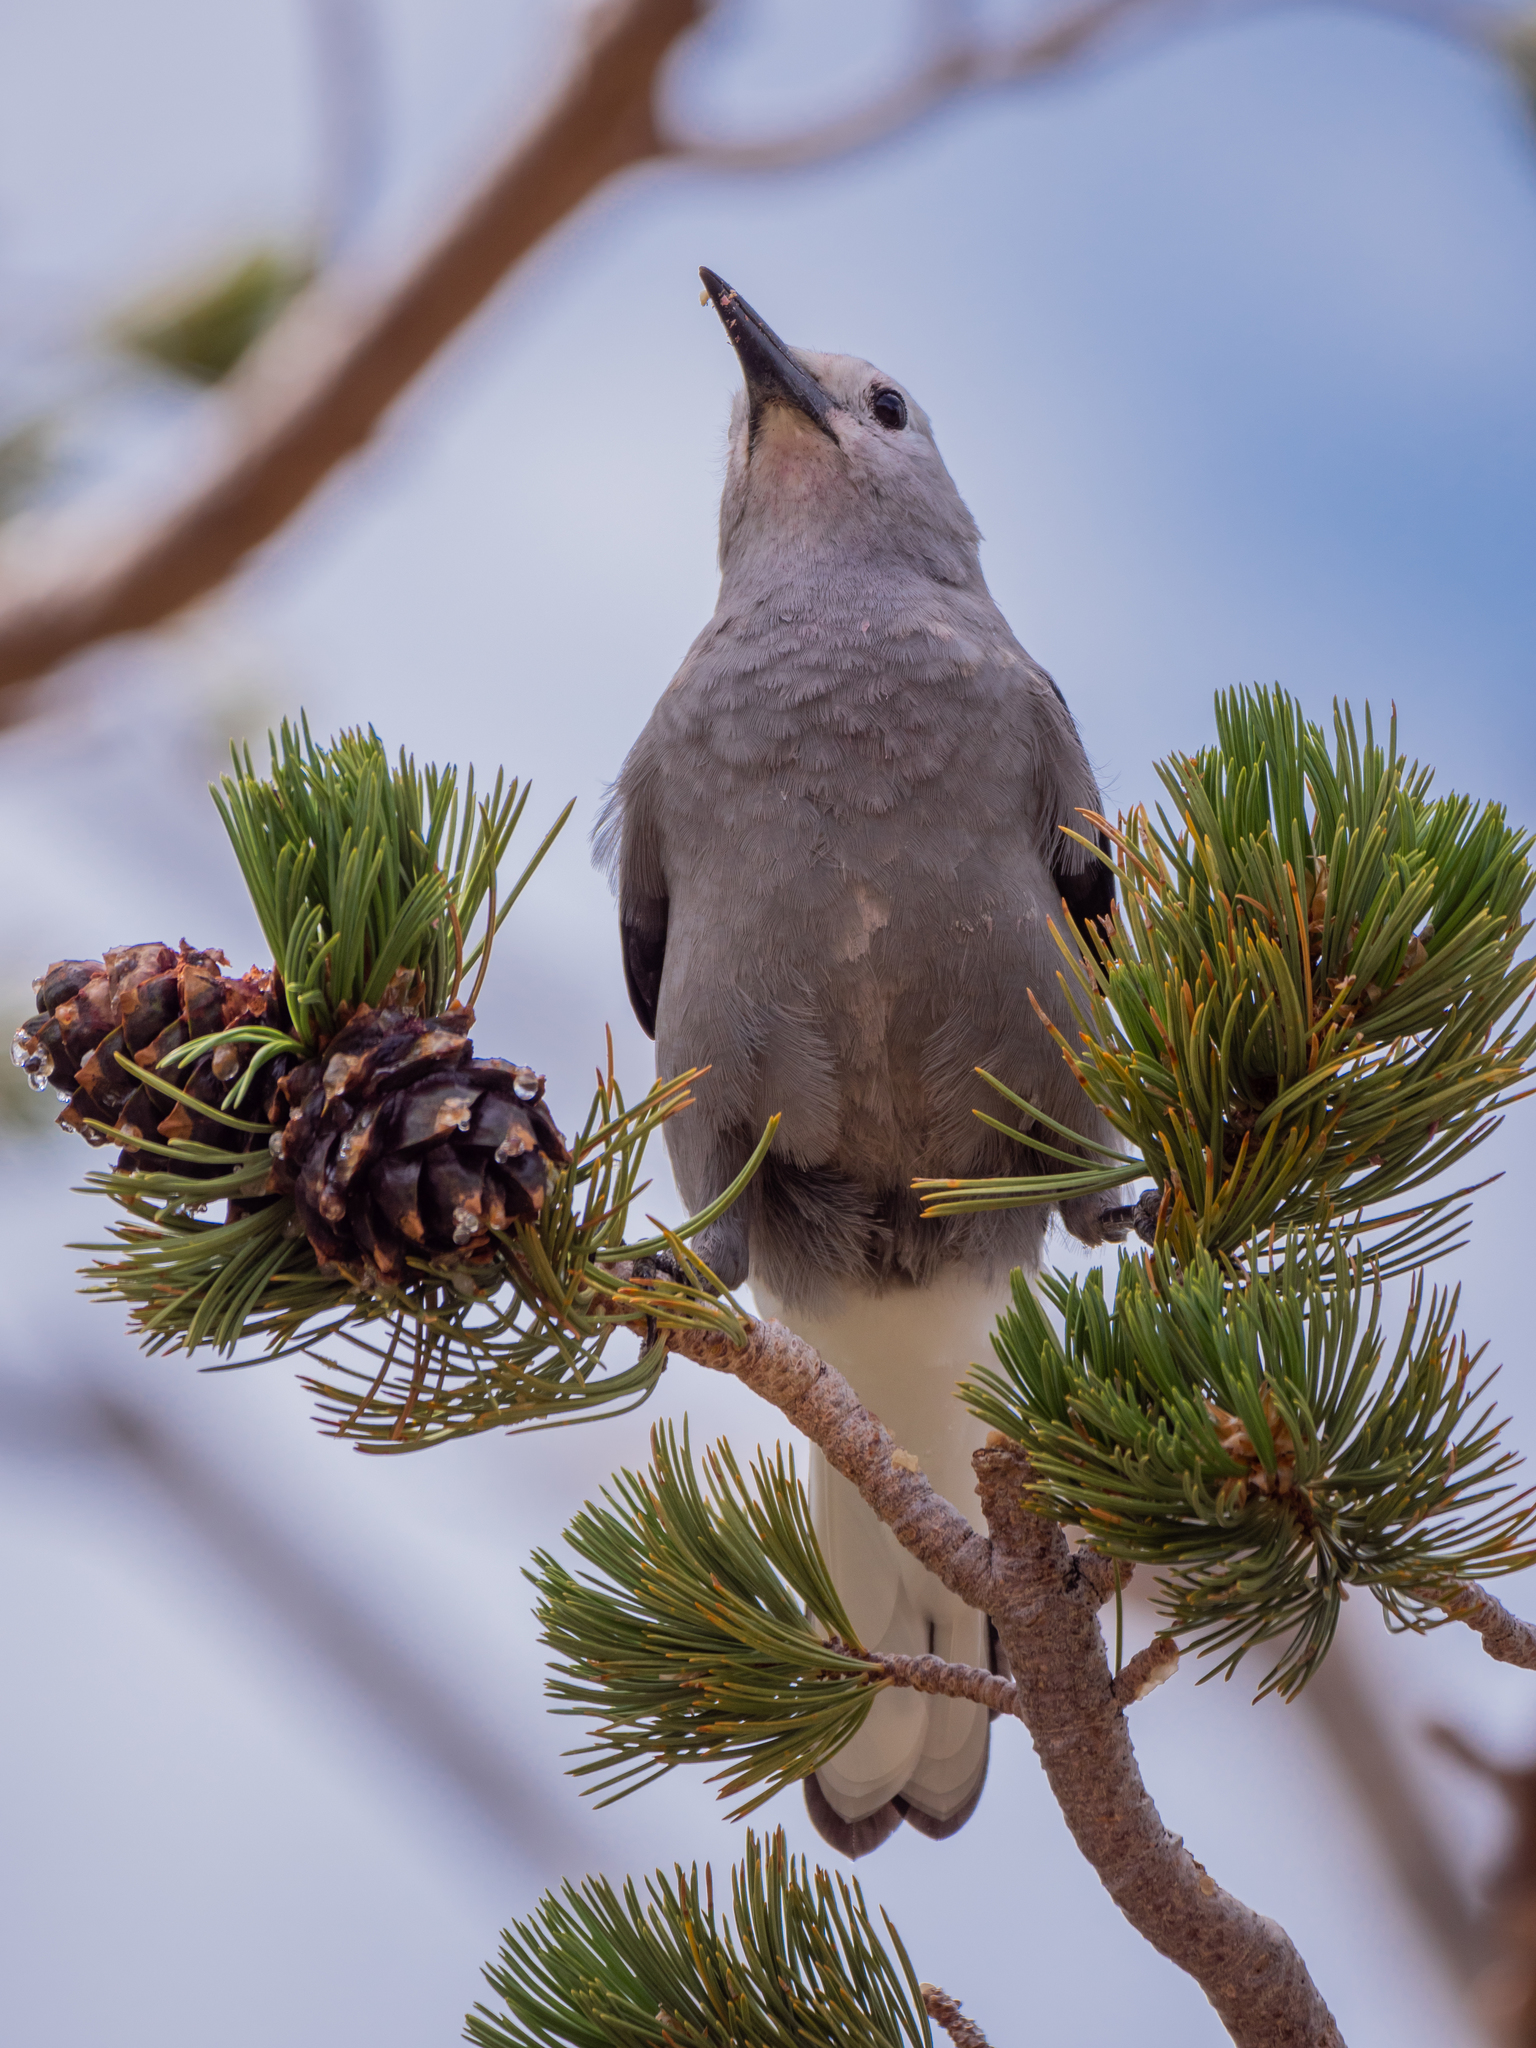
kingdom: Animalia
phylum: Chordata
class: Aves
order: Passeriformes
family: Corvidae
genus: Nucifraga
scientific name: Nucifraga columbiana
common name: Clark's nutcracker
